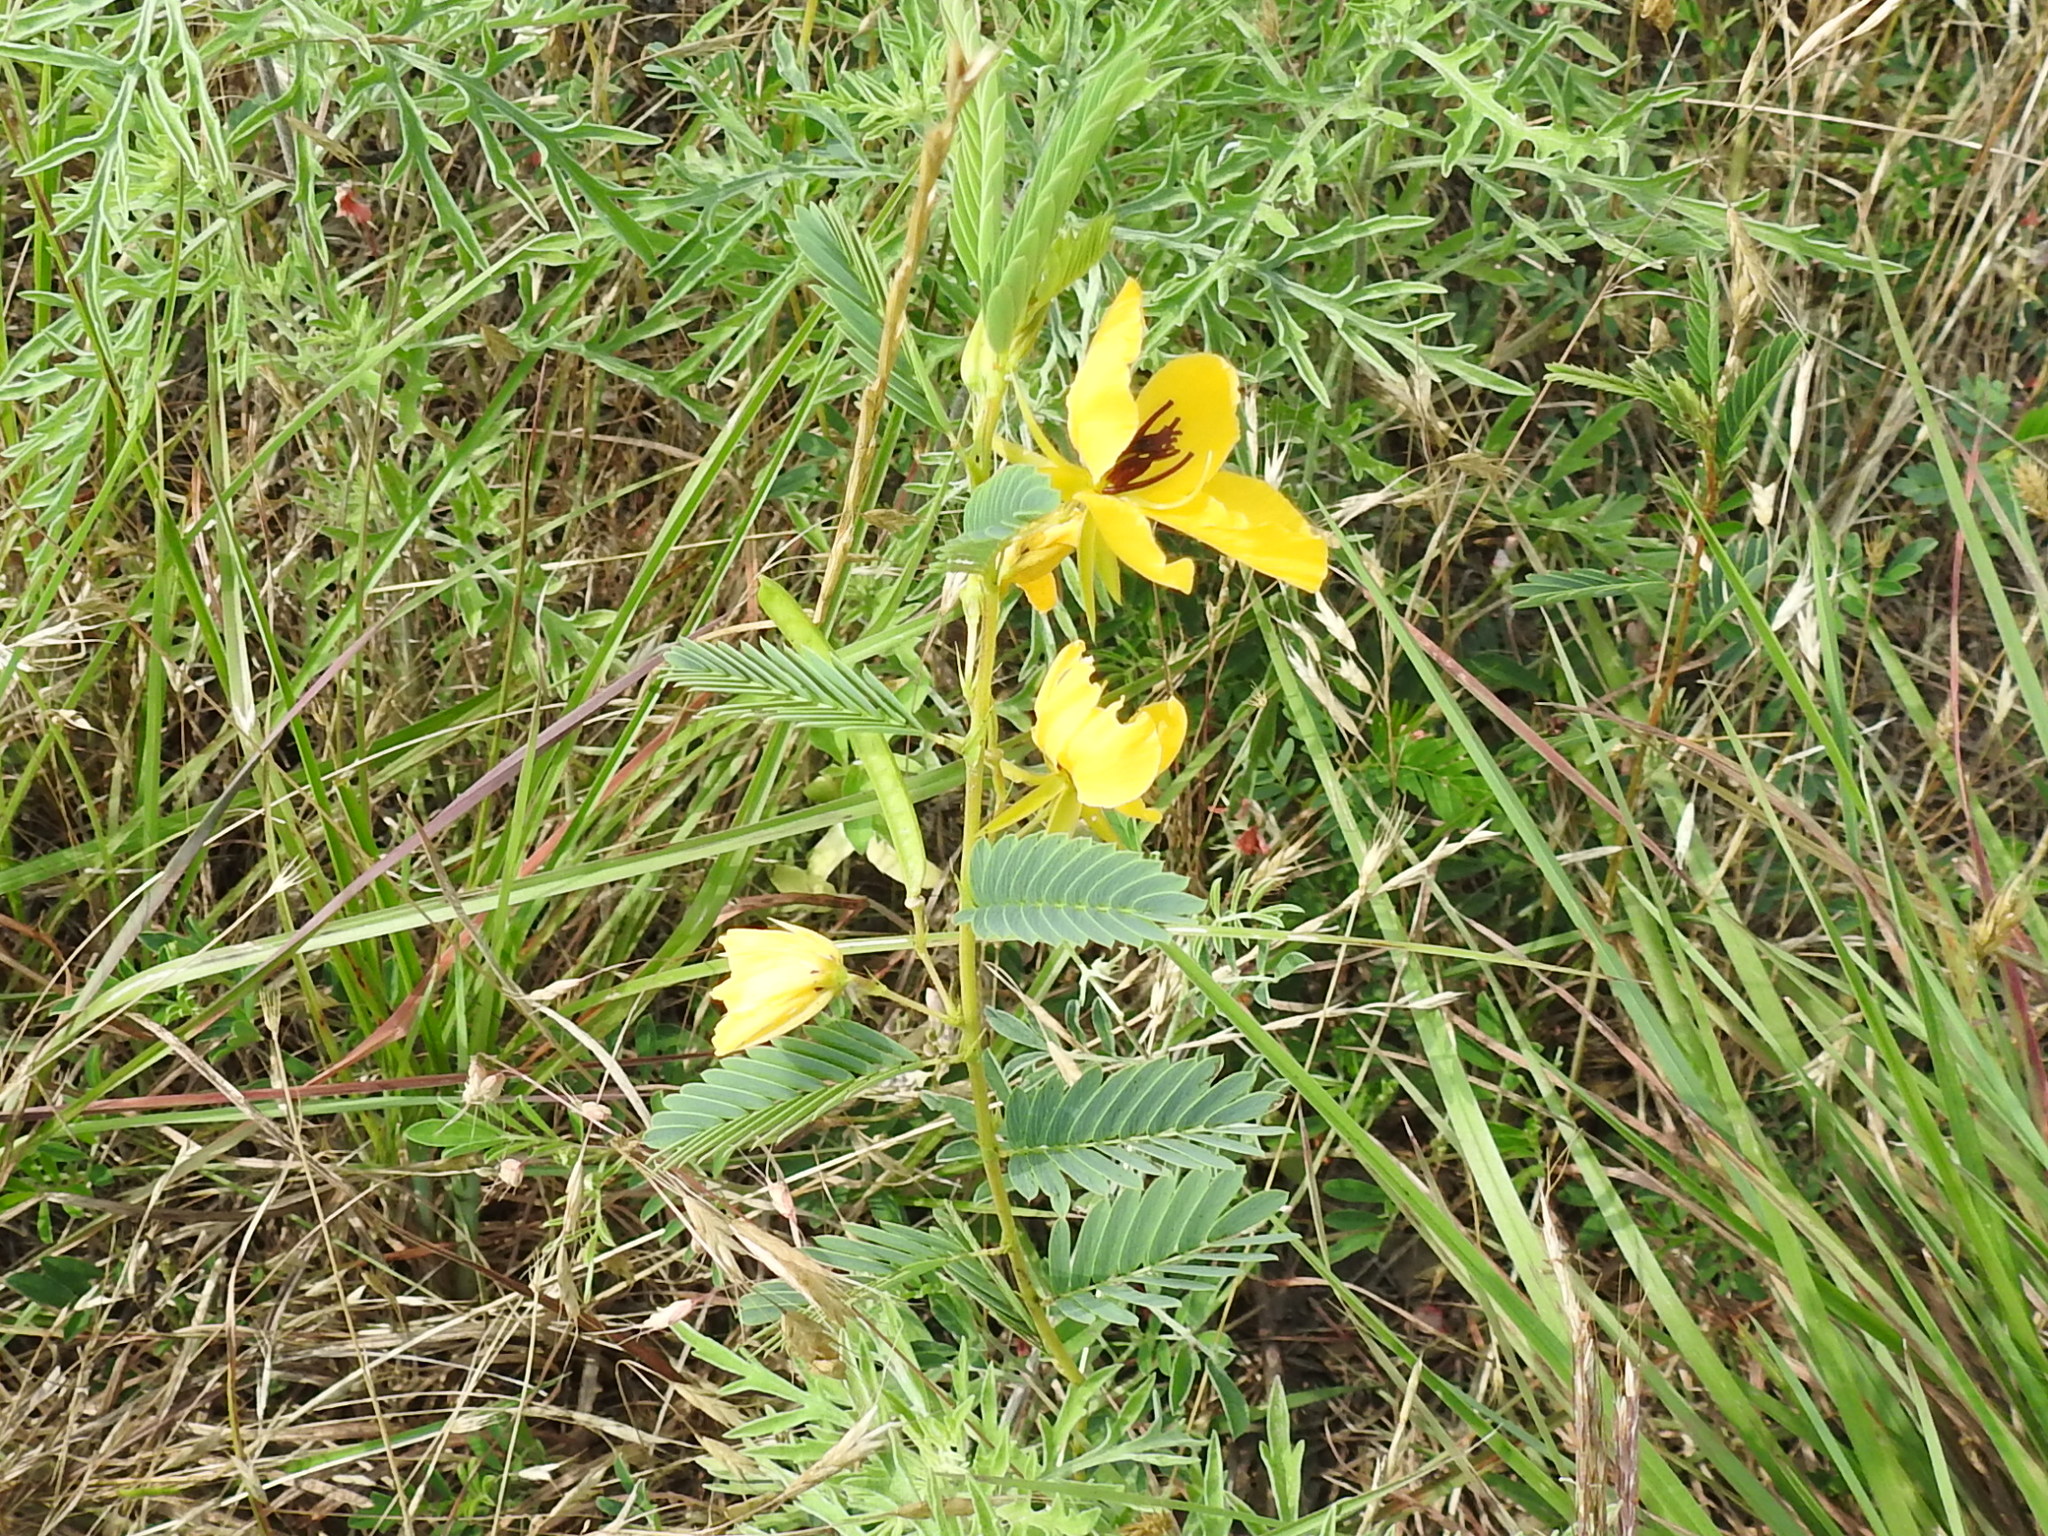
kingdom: Plantae
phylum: Tracheophyta
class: Magnoliopsida
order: Fabales
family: Fabaceae
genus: Chamaecrista
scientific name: Chamaecrista fasciculata
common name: Golden cassia
